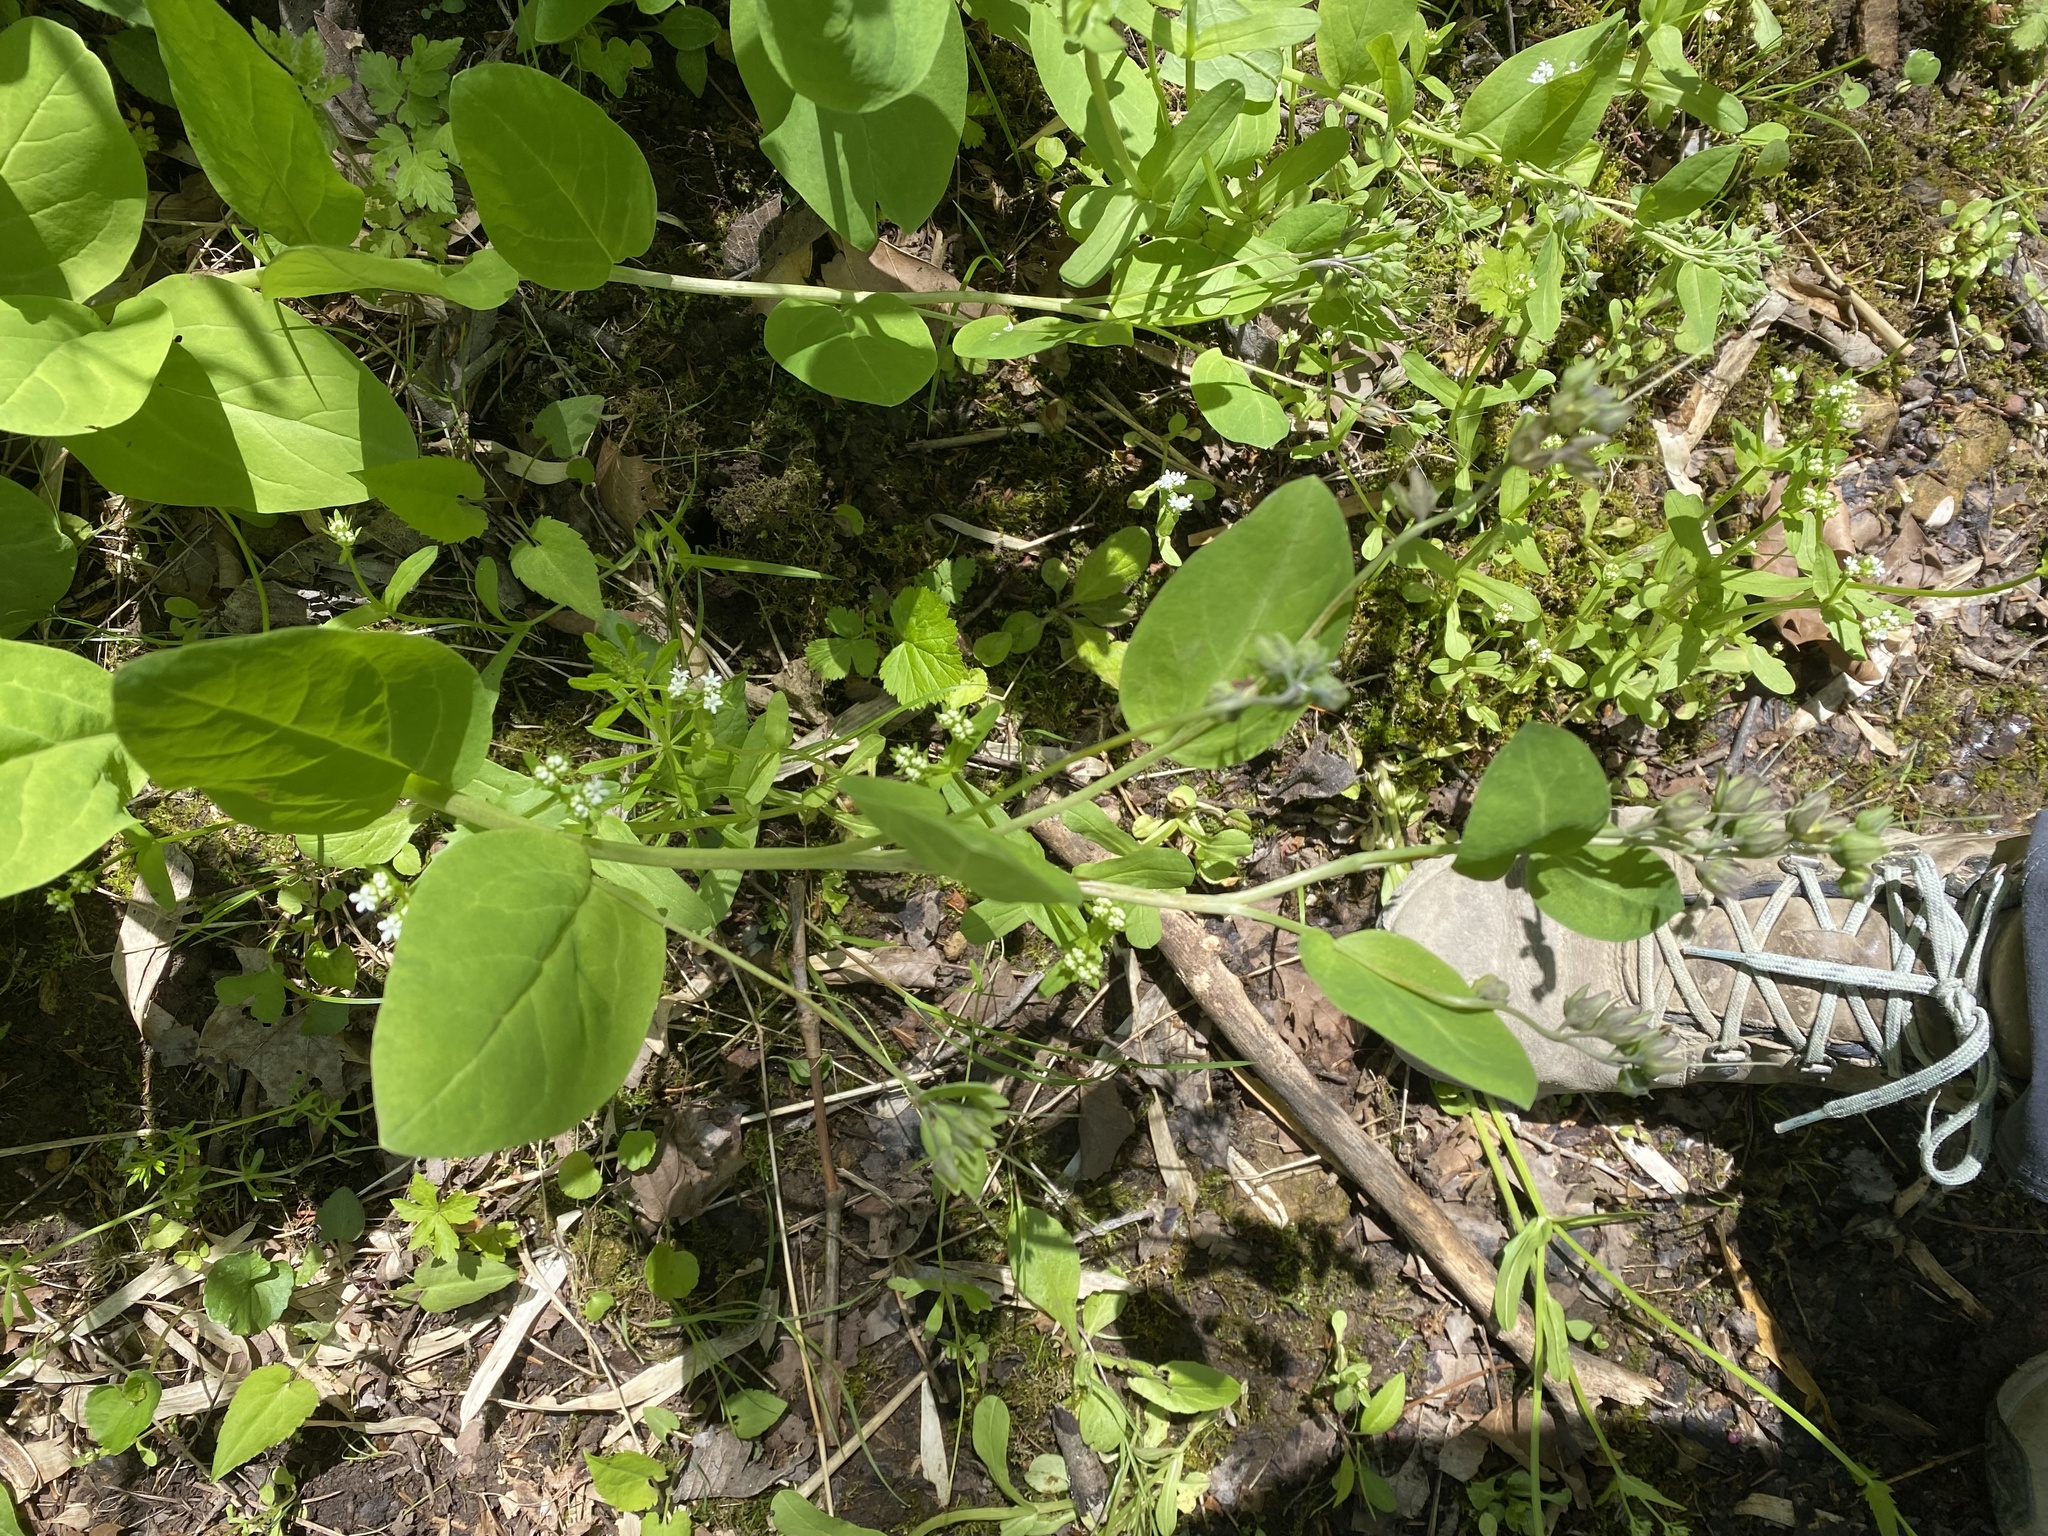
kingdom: Plantae
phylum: Tracheophyta
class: Magnoliopsida
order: Boraginales
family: Boraginaceae
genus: Mertensia
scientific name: Mertensia virginica
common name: Virginia bluebells
